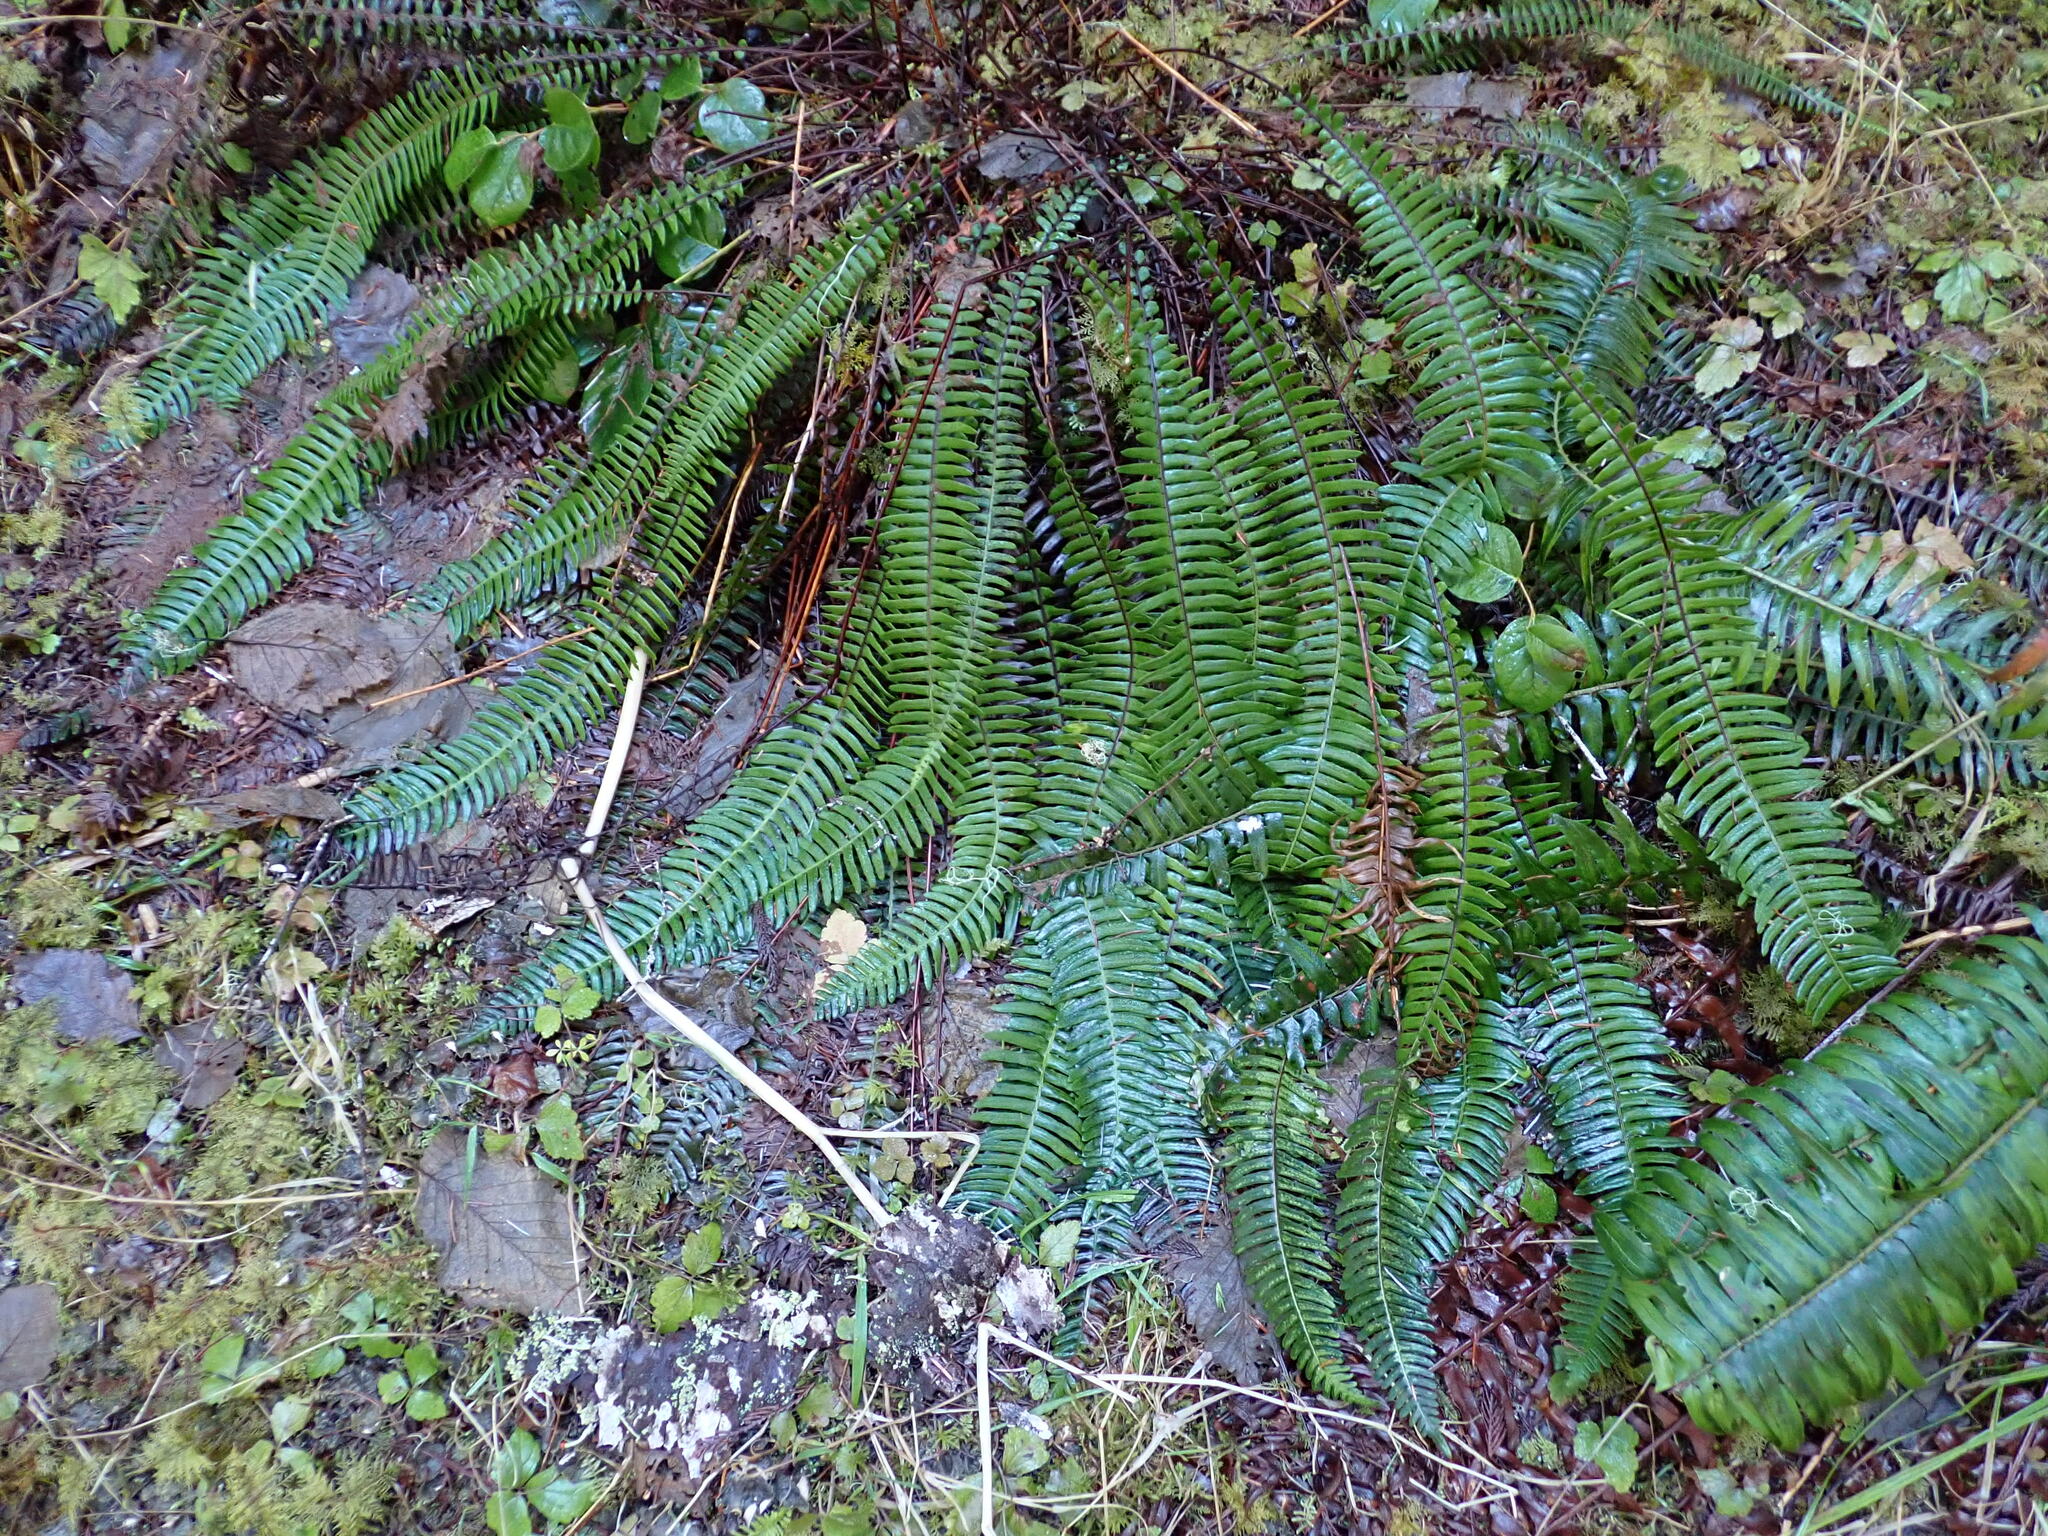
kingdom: Plantae
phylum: Tracheophyta
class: Polypodiopsida
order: Polypodiales
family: Blechnaceae
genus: Struthiopteris
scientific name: Struthiopteris spicant
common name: Deer fern
